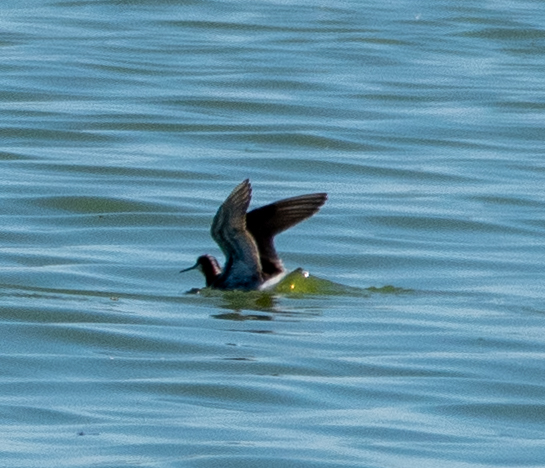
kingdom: Animalia
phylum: Chordata
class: Aves
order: Charadriiformes
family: Scolopacidae
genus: Phalaropus
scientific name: Phalaropus tricolor
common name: Wilson's phalarope
